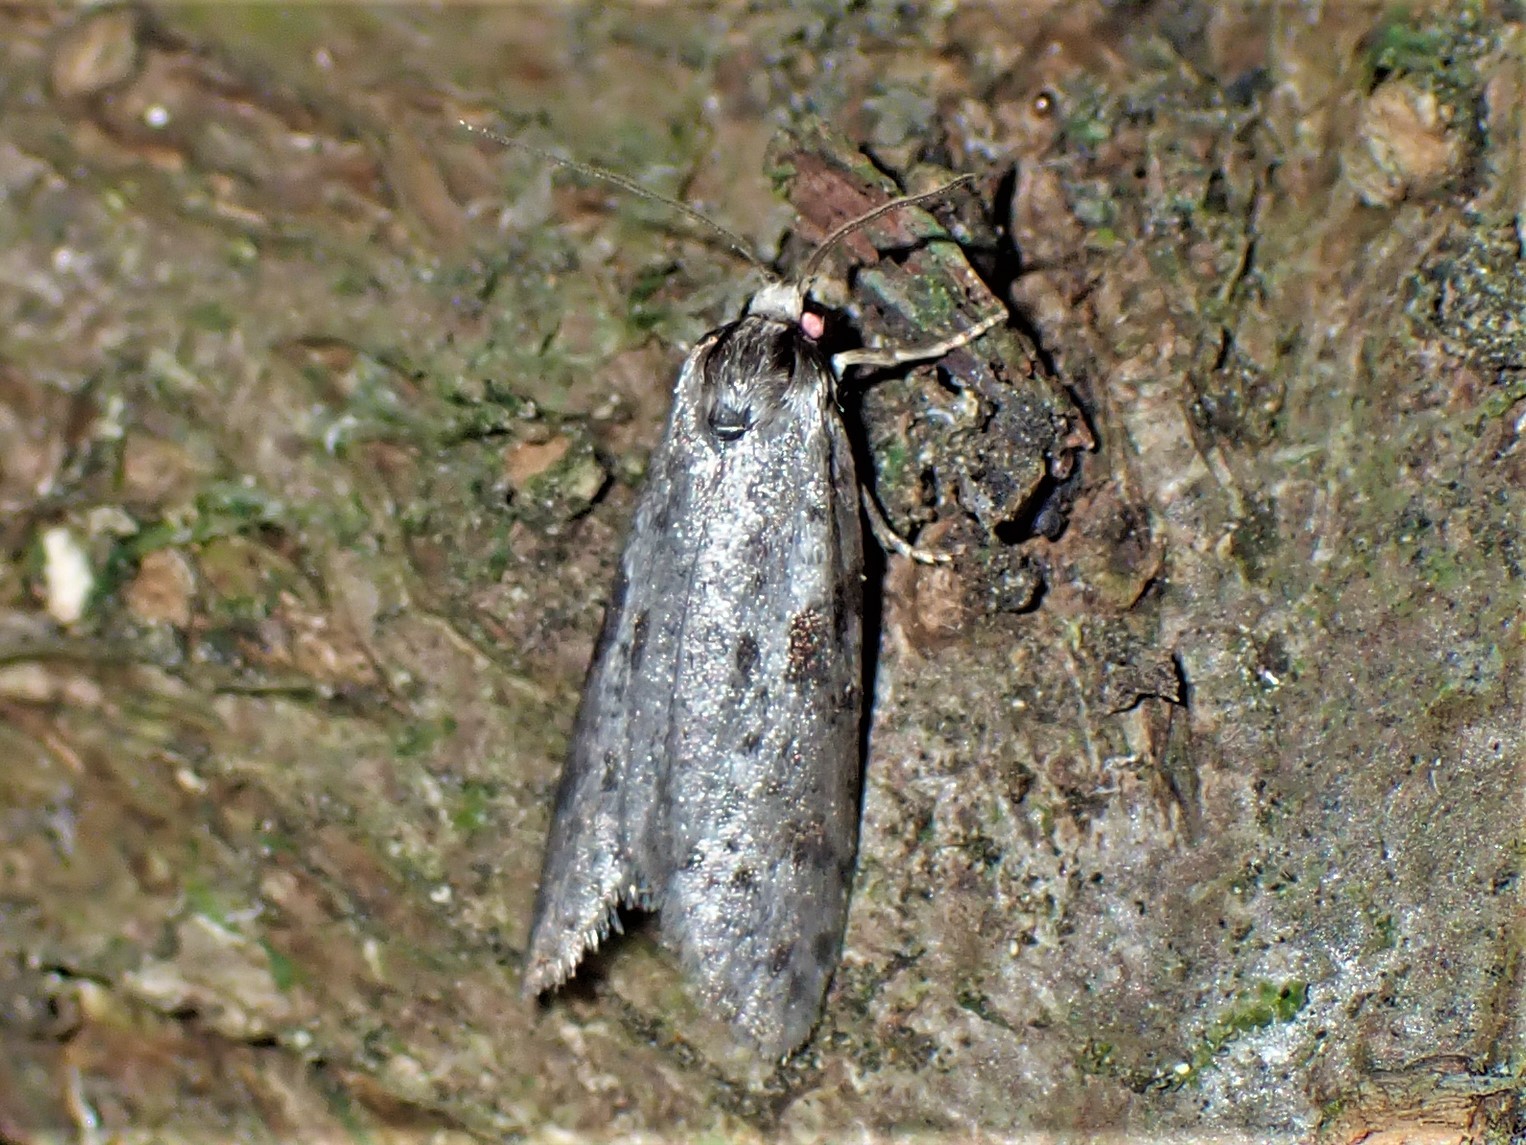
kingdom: Animalia
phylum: Arthropoda
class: Insecta
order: Lepidoptera
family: Psychidae
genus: Lepidoscia
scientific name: Lepidoscia protorna
